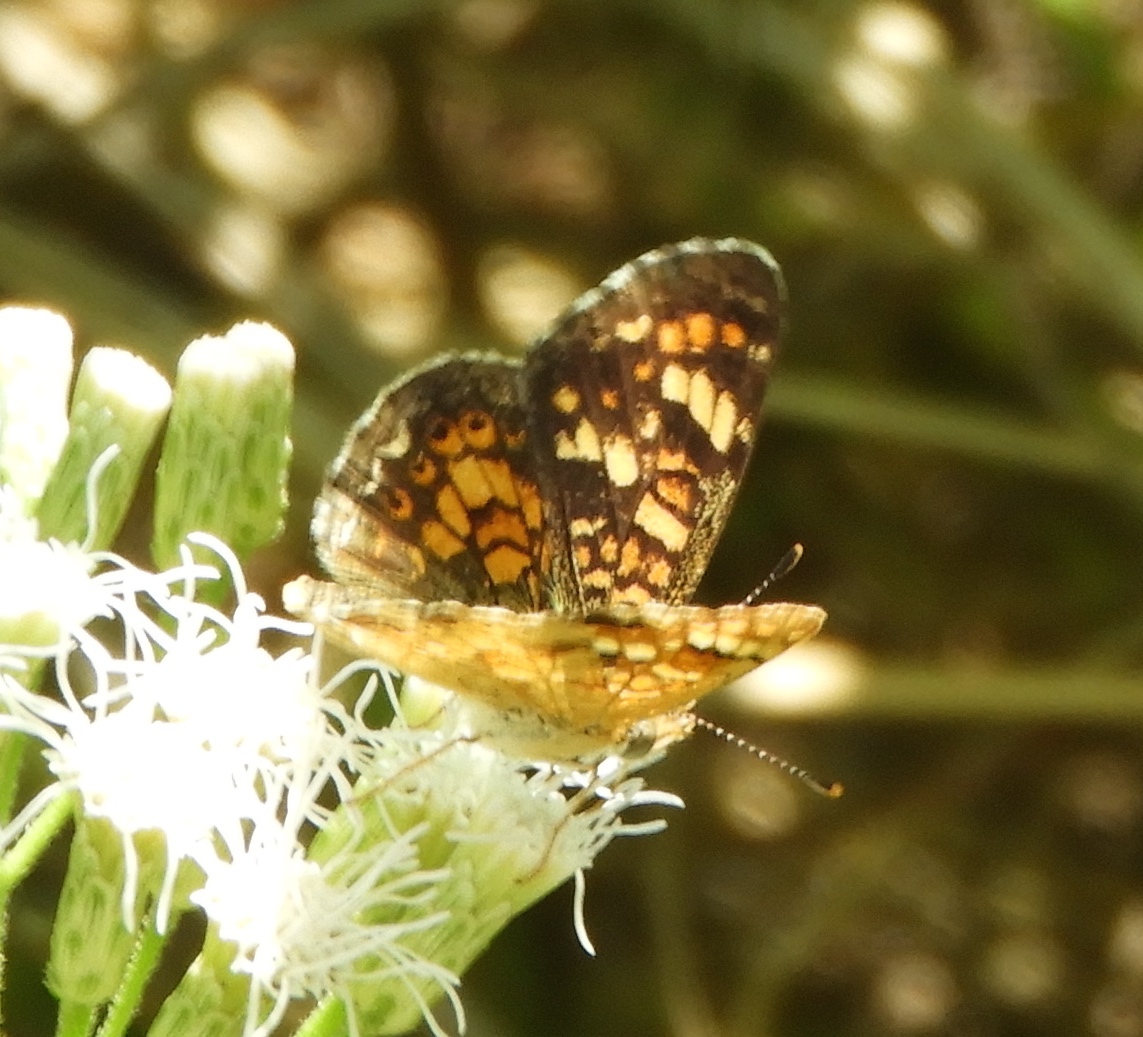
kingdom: Animalia
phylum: Arthropoda
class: Insecta
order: Lepidoptera
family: Nymphalidae
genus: Phyciodes
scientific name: Phyciodes picta
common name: Painted crescent
